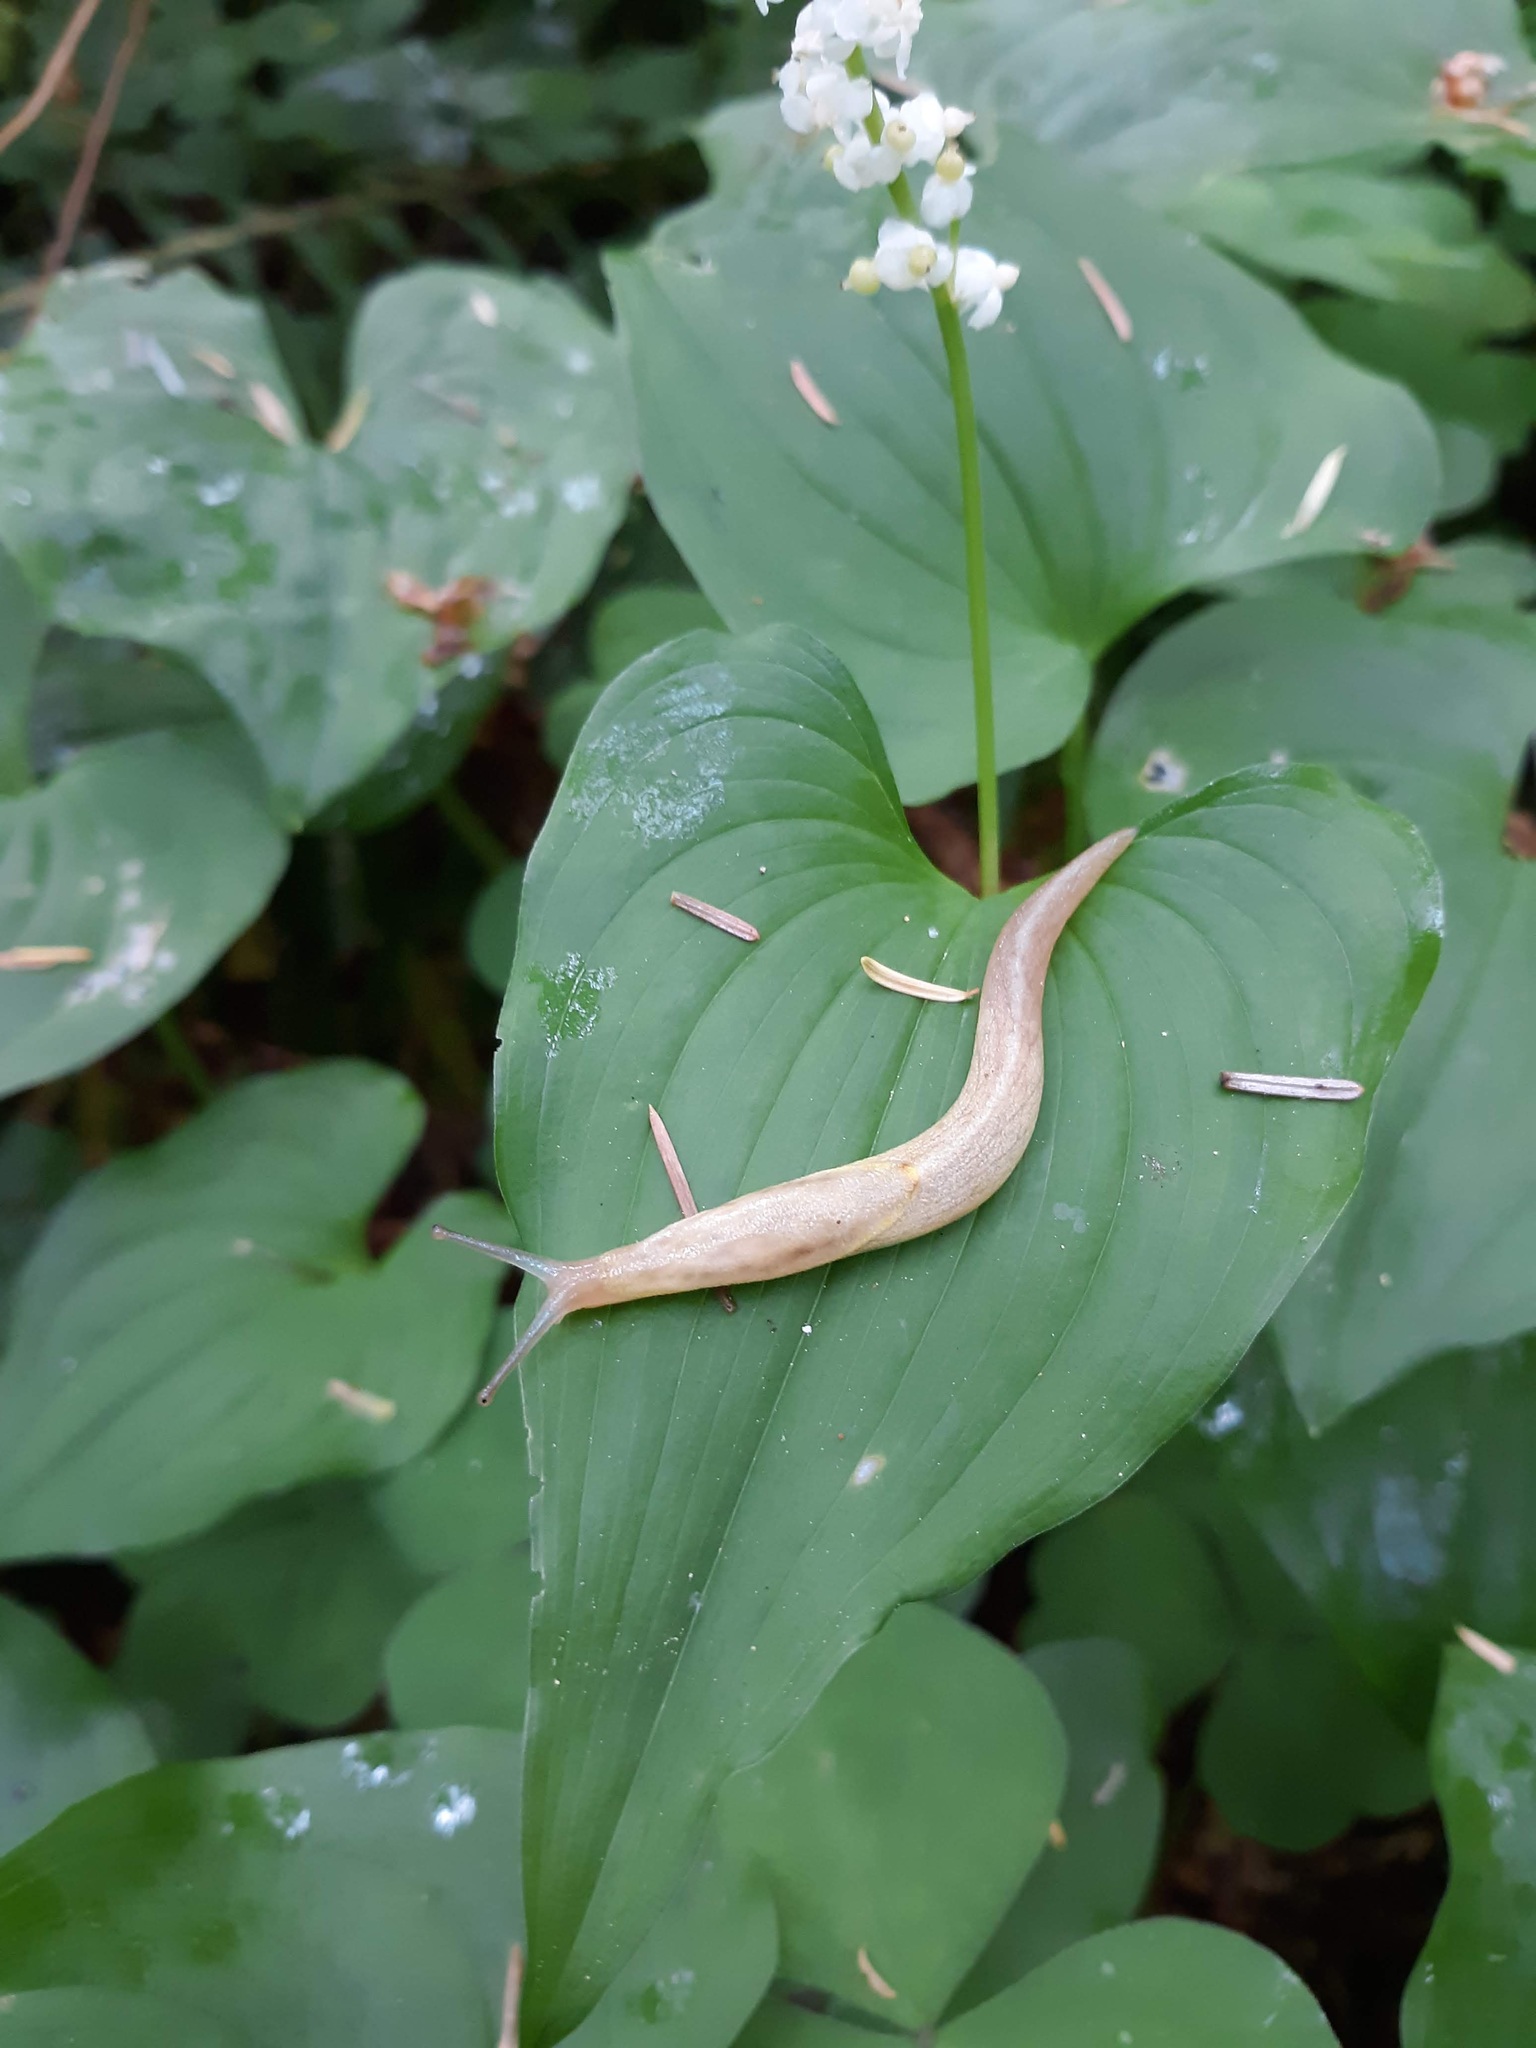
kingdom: Animalia
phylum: Mollusca
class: Gastropoda
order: Stylommatophora
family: Ariolimacidae
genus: Prophysaon
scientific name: Prophysaon foliolatum
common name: Yellow-bordered taildropper
